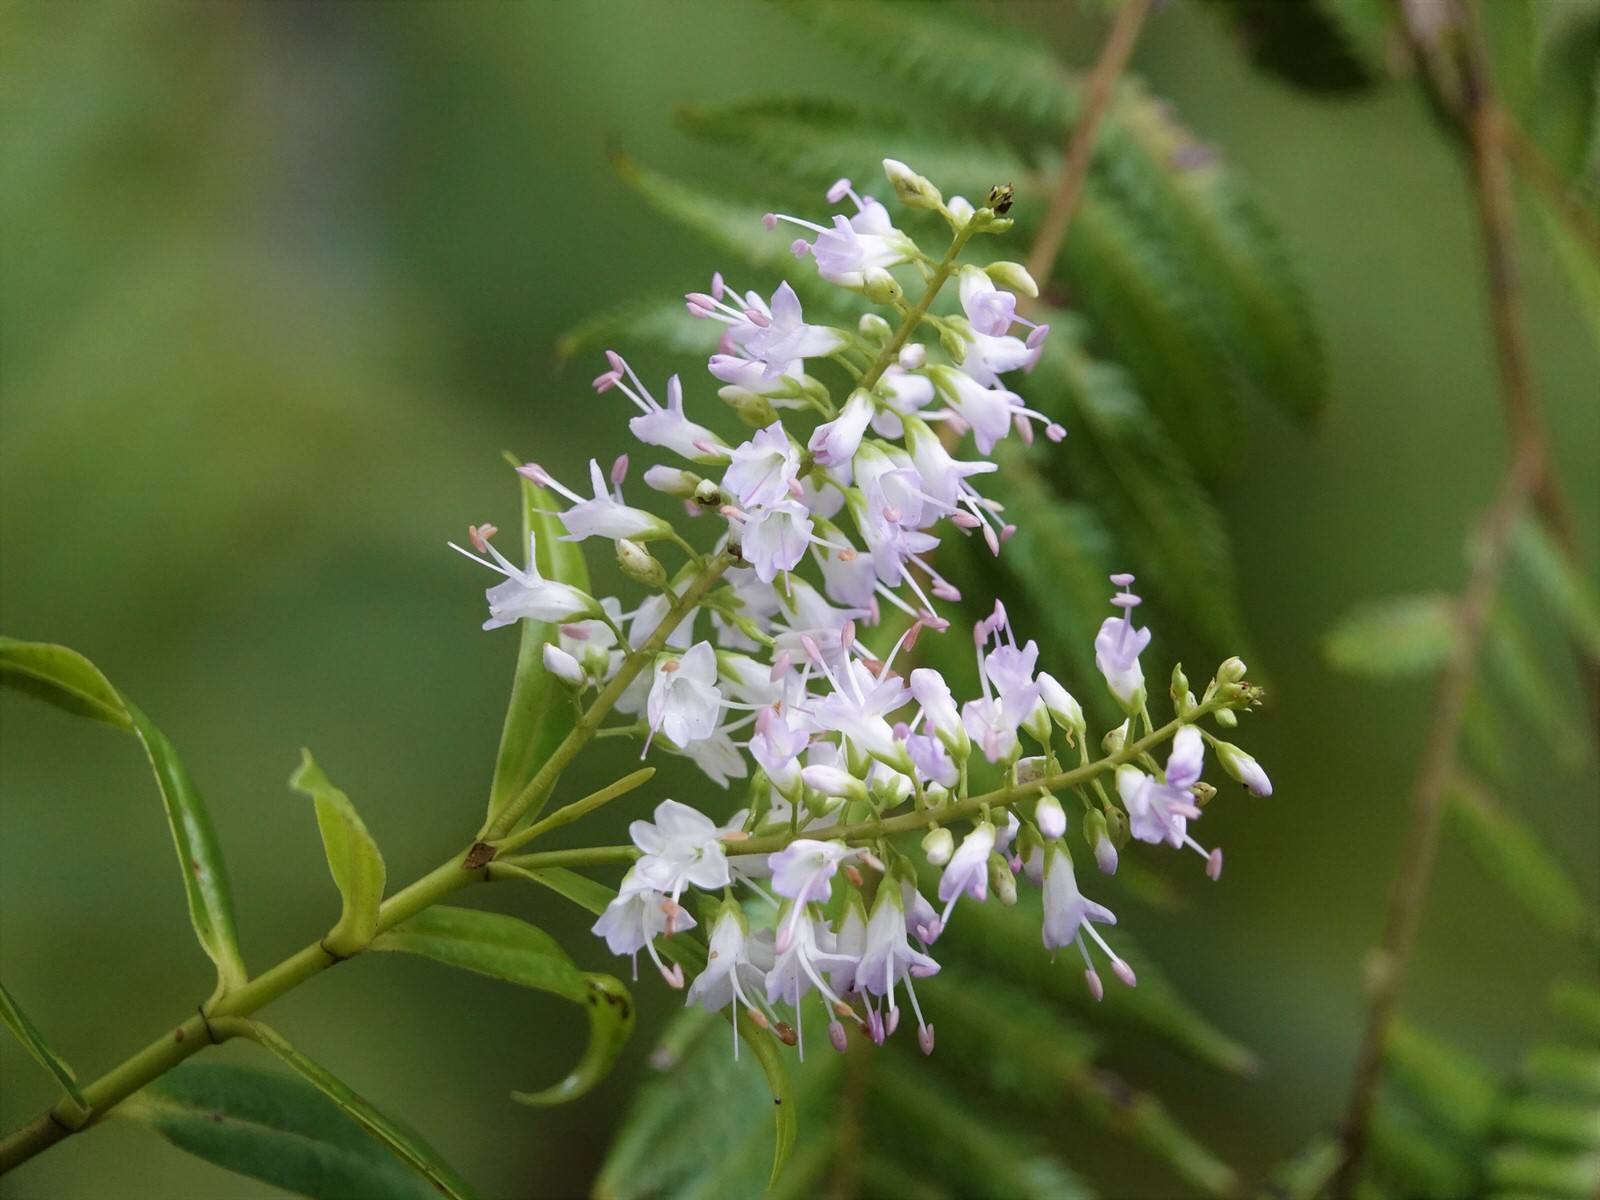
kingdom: Plantae
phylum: Tracheophyta
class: Magnoliopsida
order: Lamiales
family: Plantaginaceae
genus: Veronica
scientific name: Veronica macrocarpa
